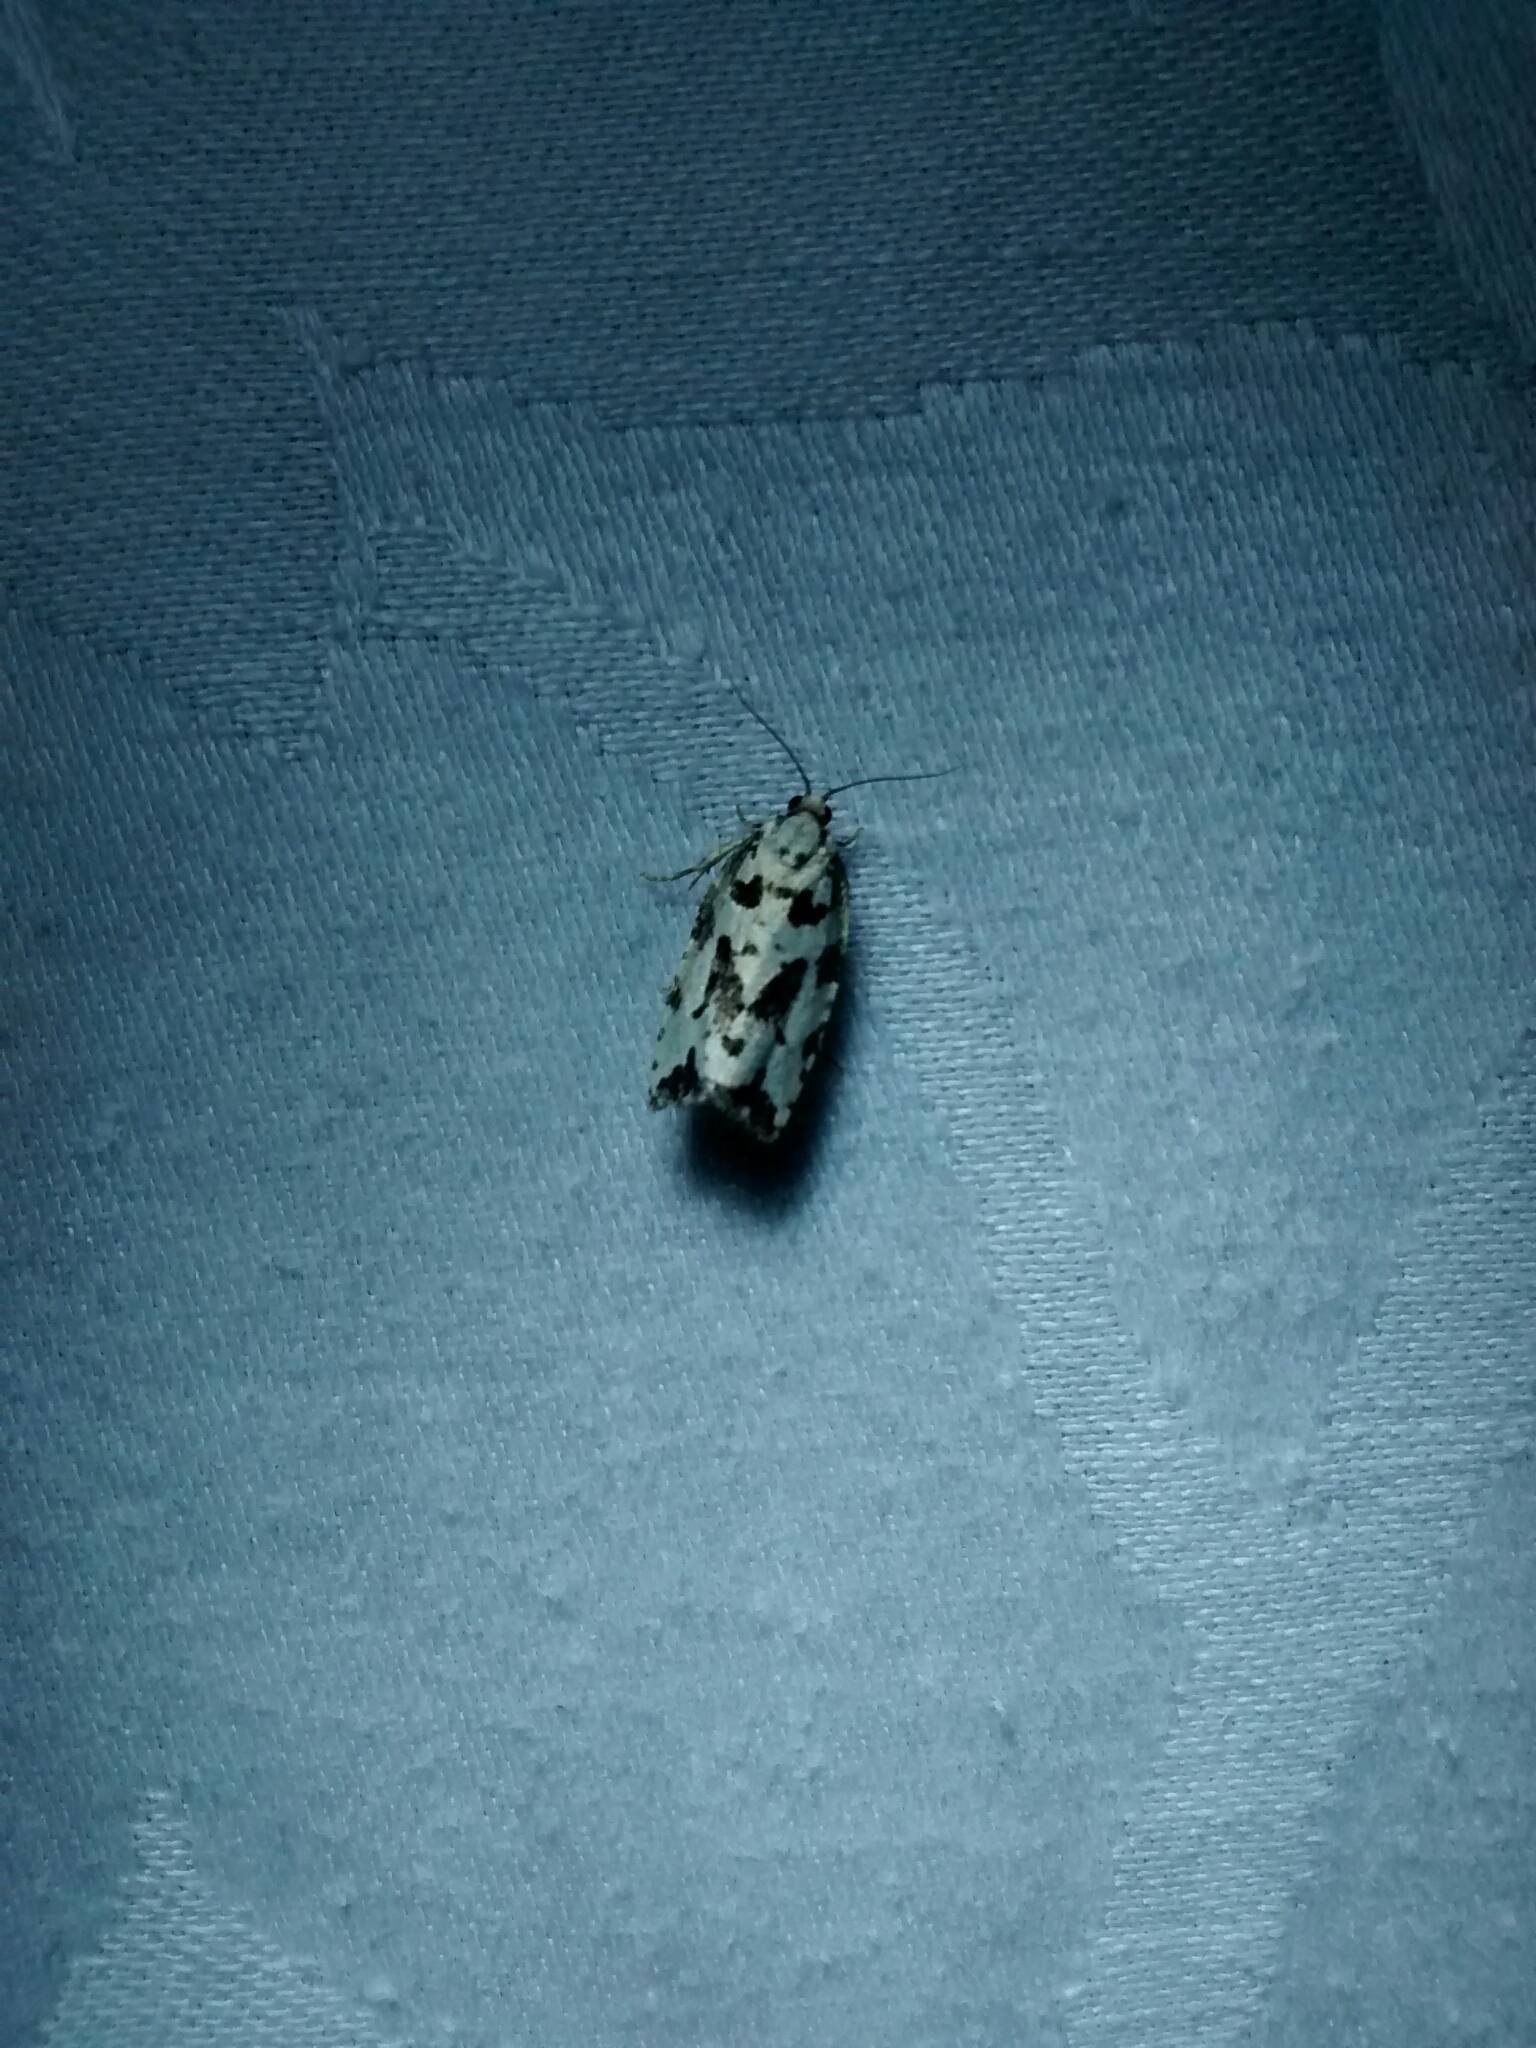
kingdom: Animalia
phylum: Arthropoda
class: Insecta
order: Lepidoptera
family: Tortricidae
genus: Archips
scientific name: Archips dissitana
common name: Boldly-marked archips moth
